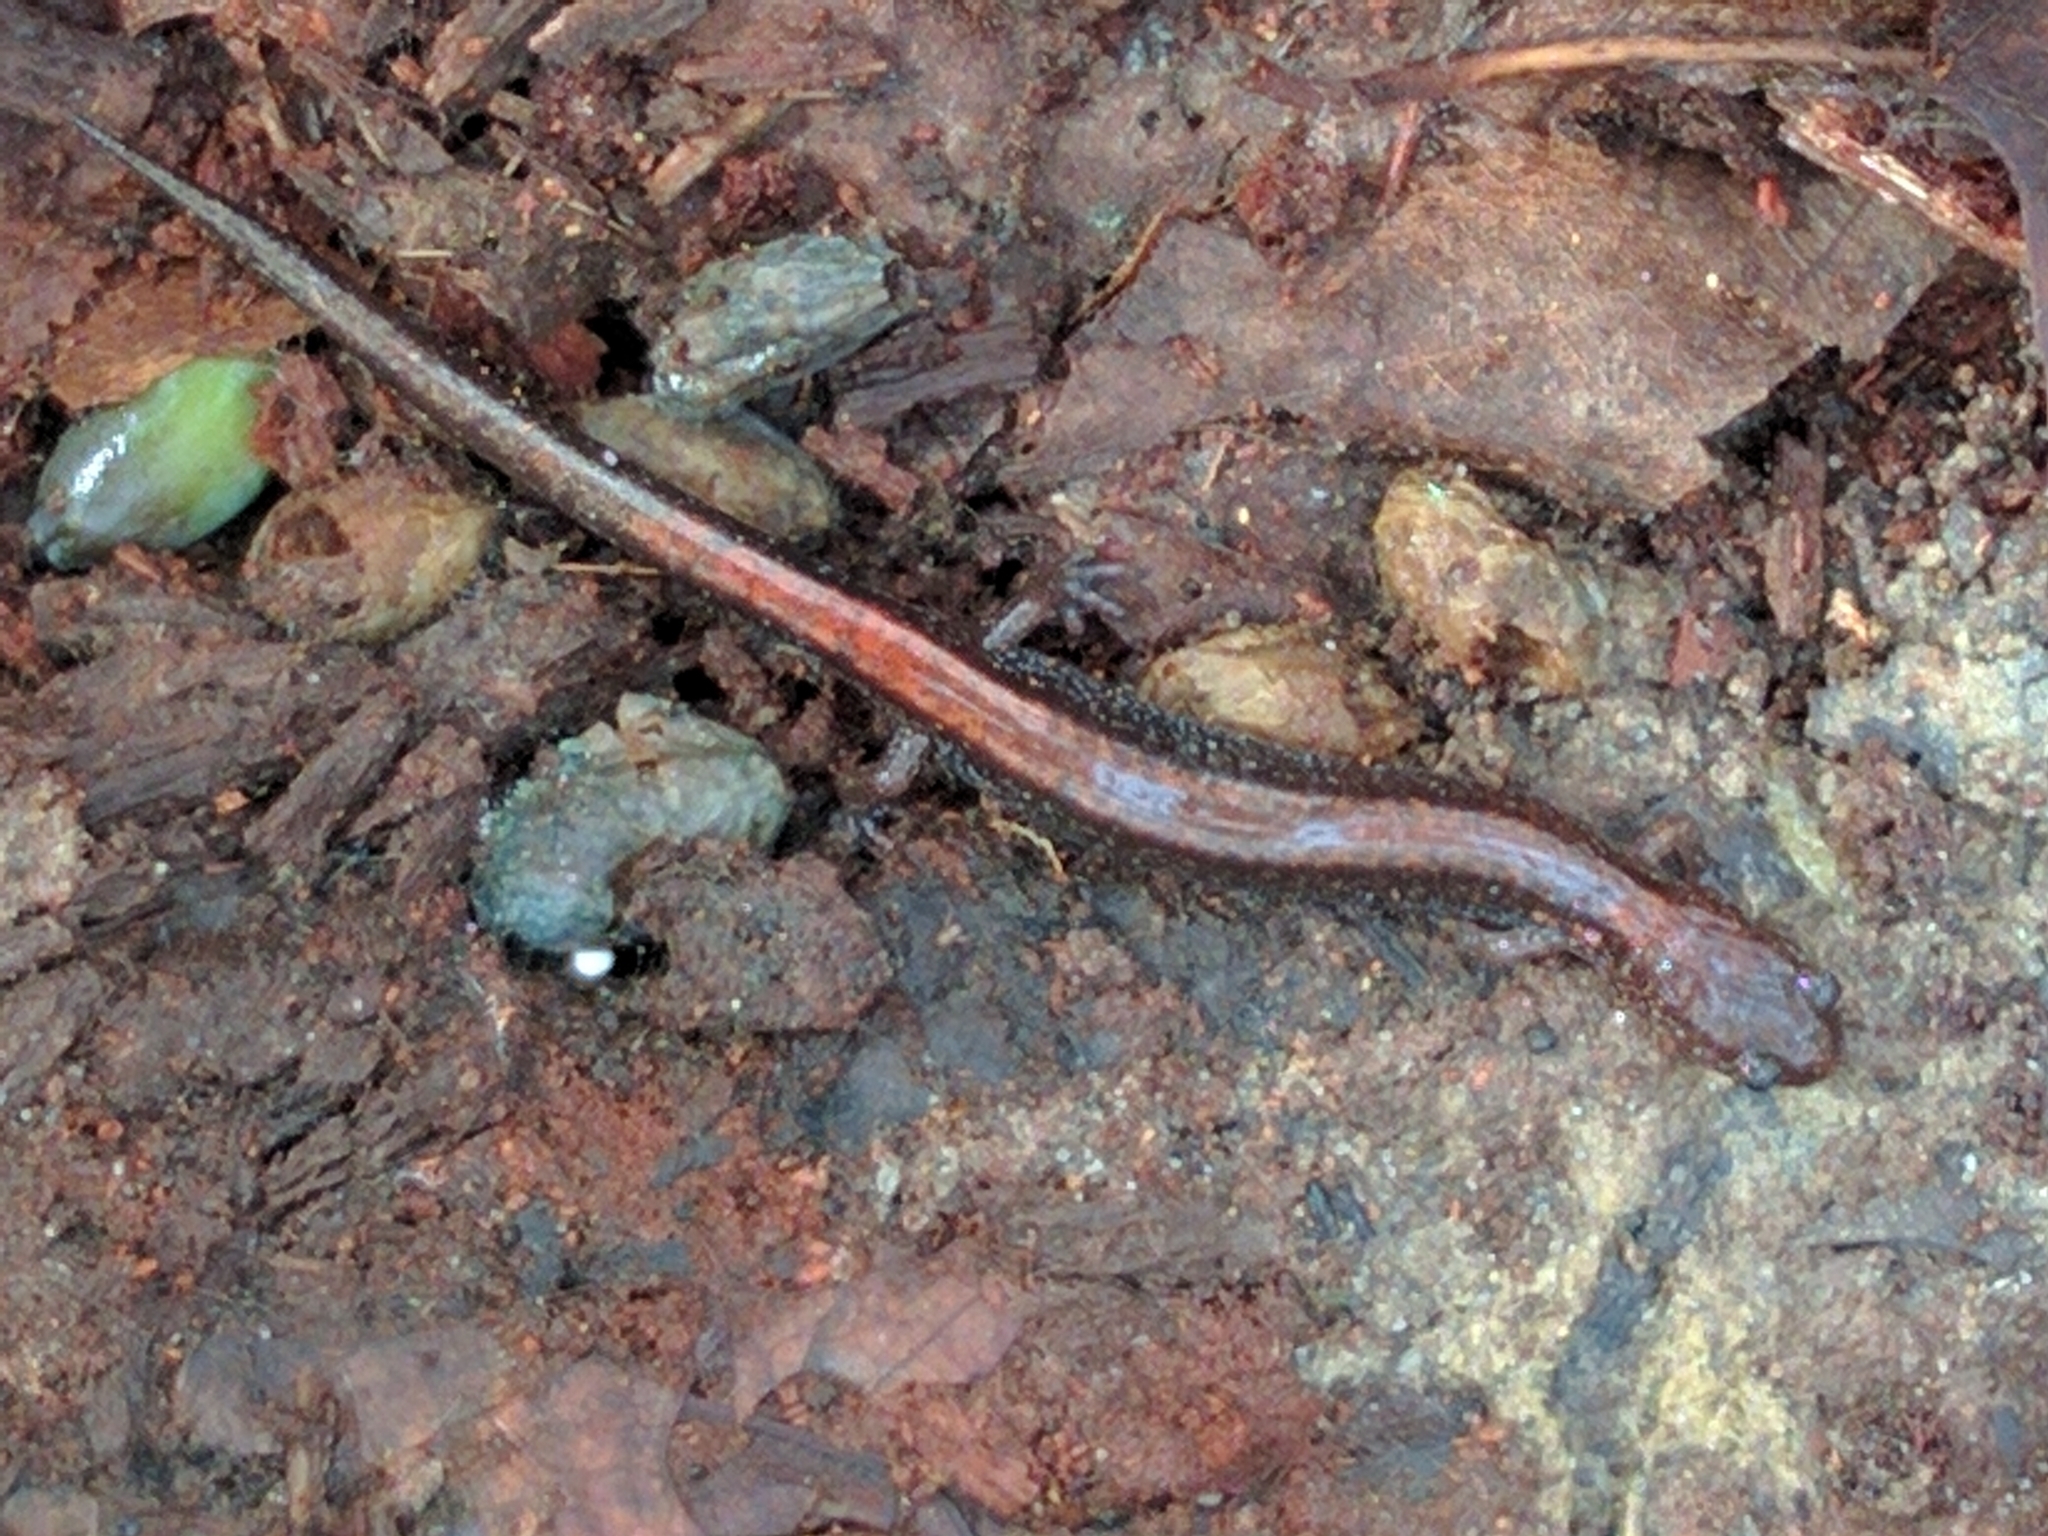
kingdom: Animalia
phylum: Chordata
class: Amphibia
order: Caudata
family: Plethodontidae
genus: Plethodon
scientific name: Plethodon cinereus
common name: Redback salamander
